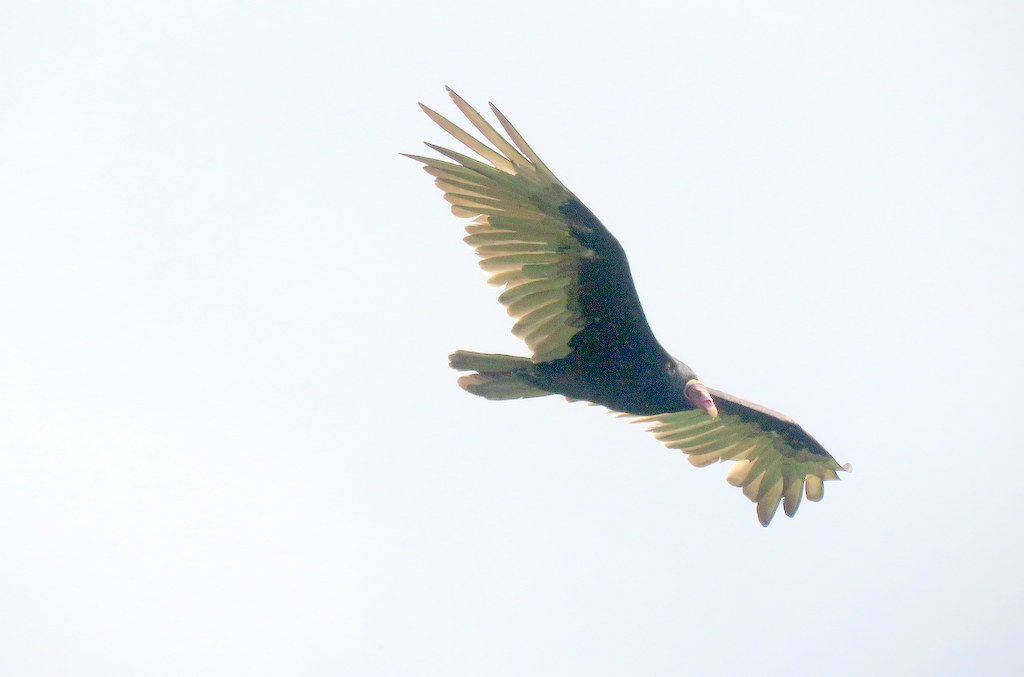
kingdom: Animalia
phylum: Chordata
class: Aves
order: Accipitriformes
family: Cathartidae
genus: Cathartes
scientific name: Cathartes aura
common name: Turkey vulture
